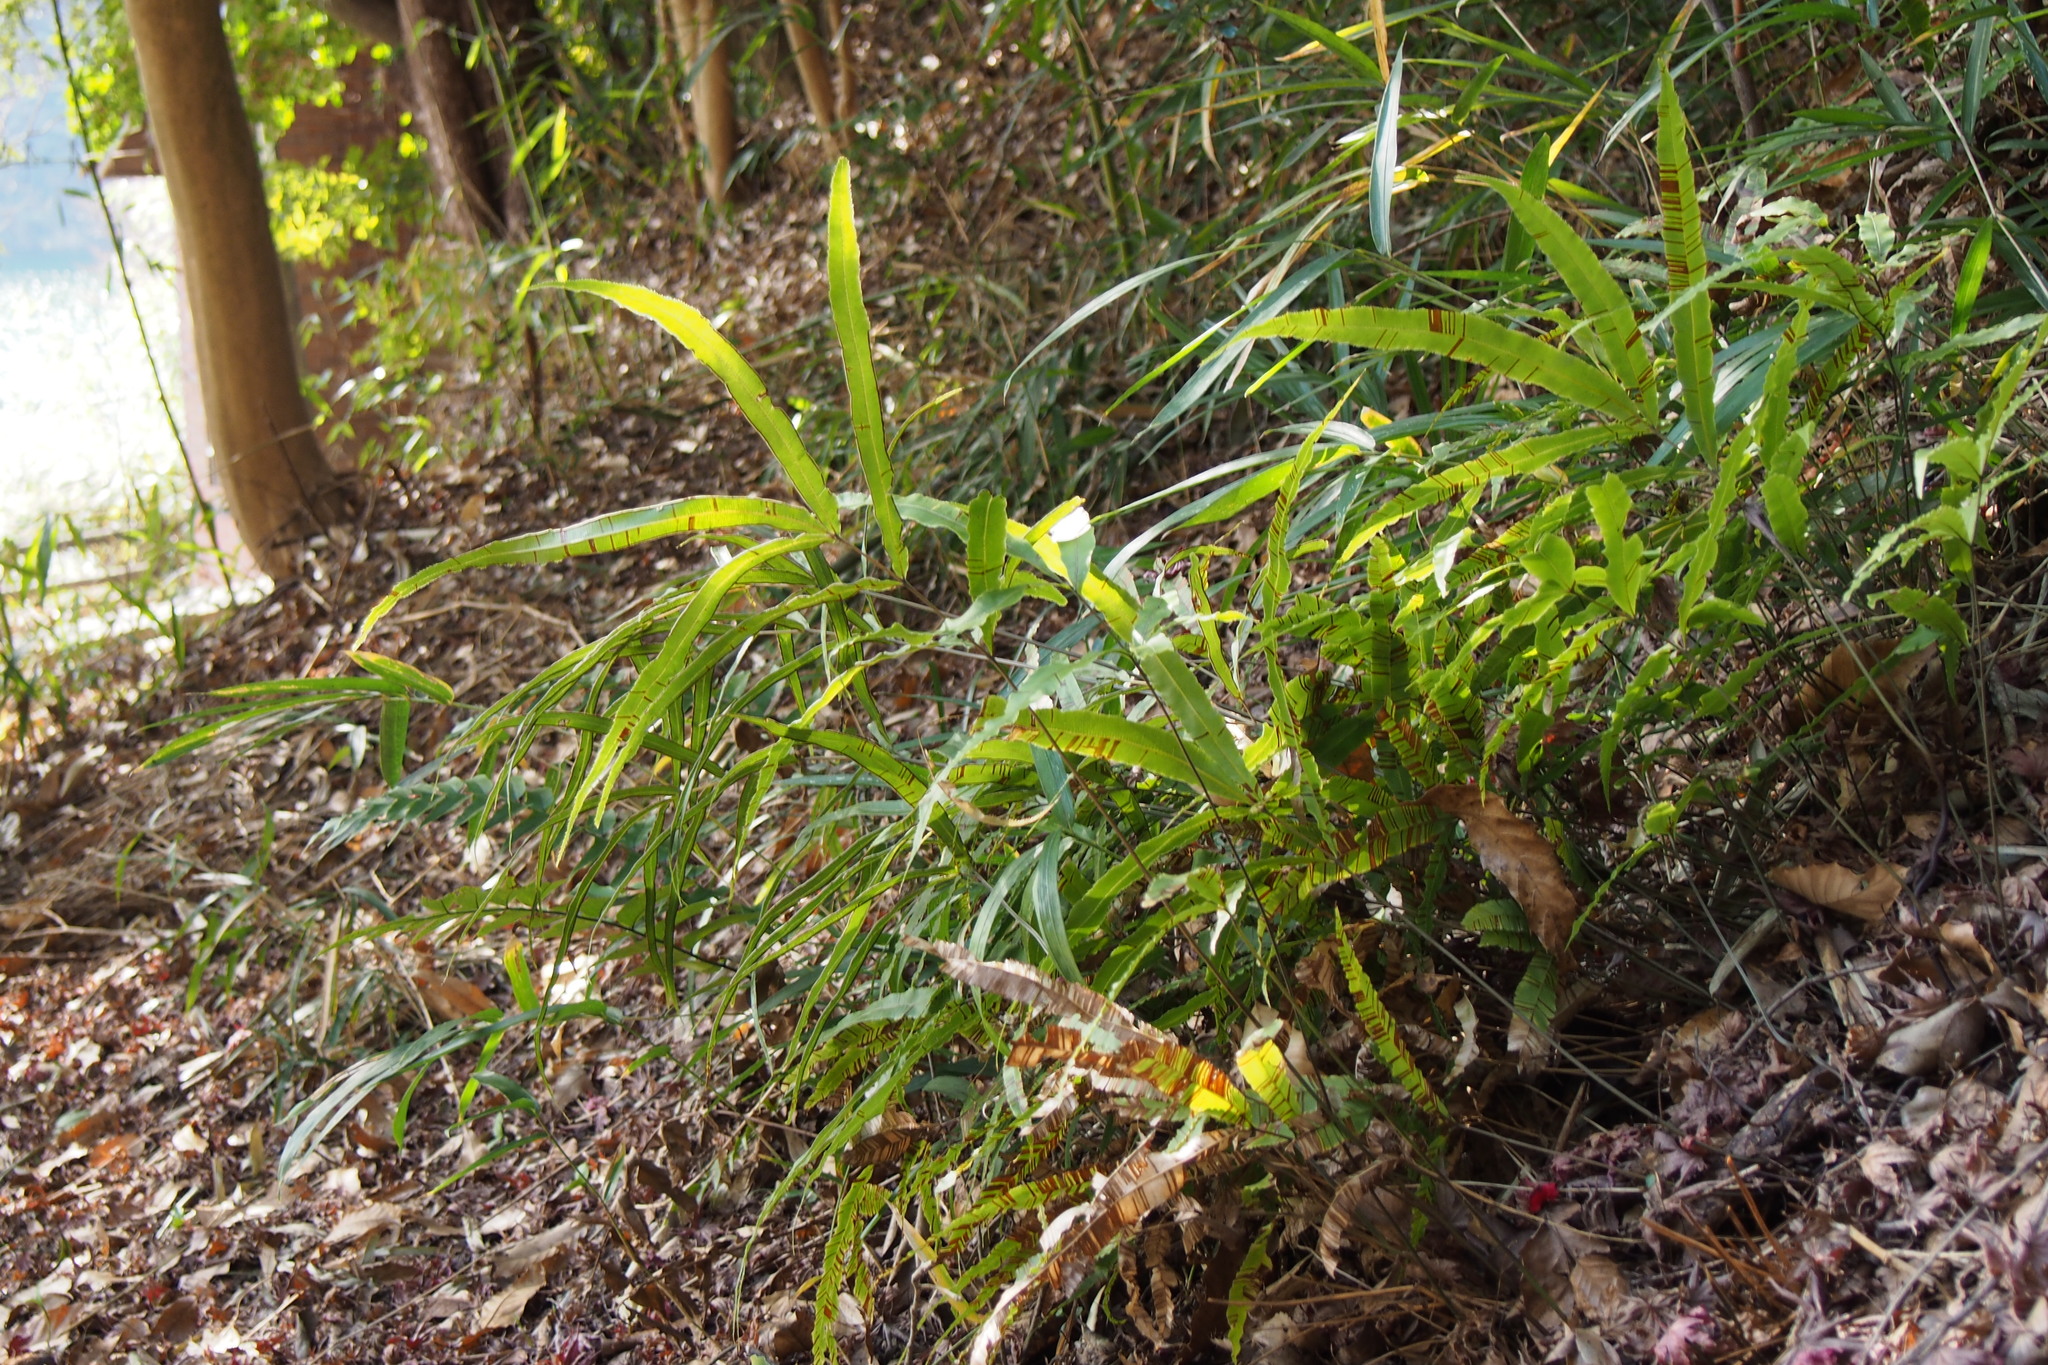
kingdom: Plantae
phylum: Tracheophyta
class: Polypodiopsida
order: Polypodiales
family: Pteridaceae
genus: Pteris
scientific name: Pteris cretica
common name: Ribbon fern
